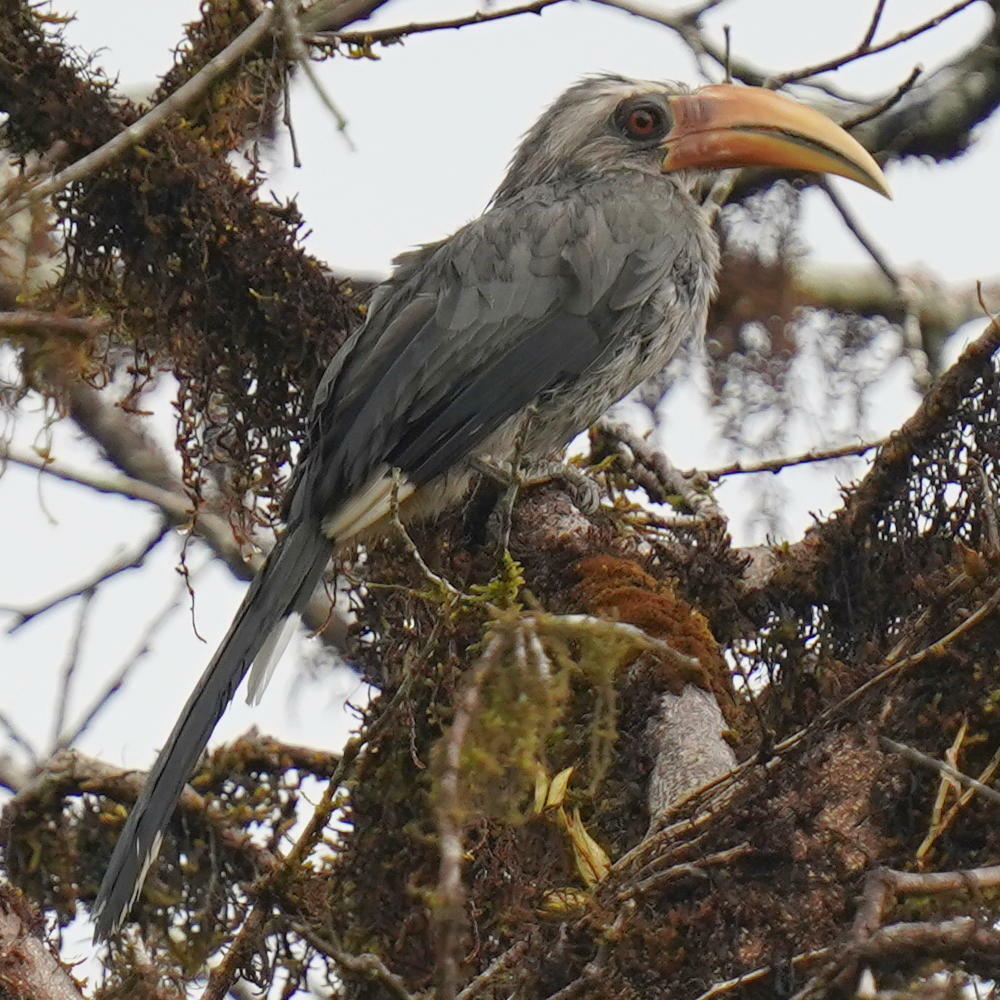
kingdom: Animalia
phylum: Chordata
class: Aves
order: Bucerotiformes
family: Bucerotidae
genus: Ocyceros
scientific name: Ocyceros griseus
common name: Malabar grey hornbill
